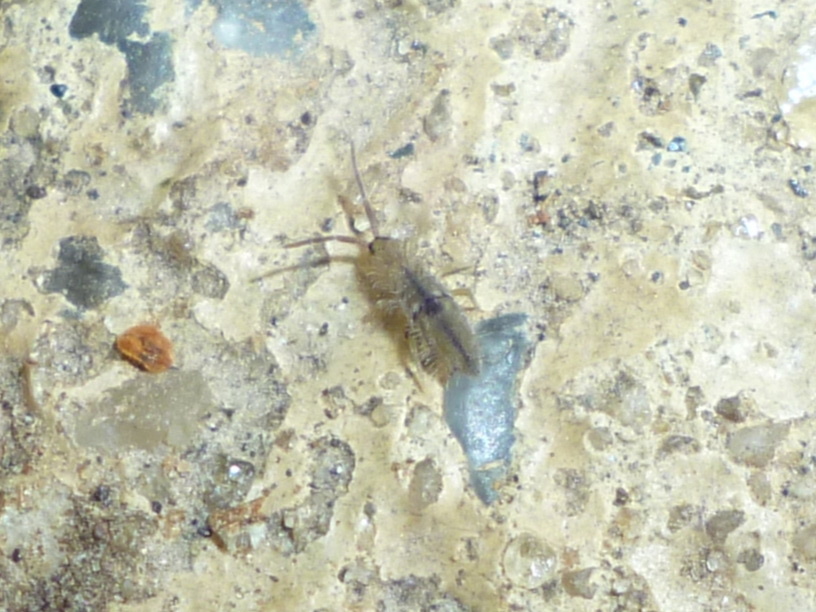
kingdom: Animalia
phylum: Arthropoda
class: Collembola
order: Entomobryomorpha
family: Entomobryidae
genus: Entomobrya
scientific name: Entomobrya unostrigata
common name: Springtail
